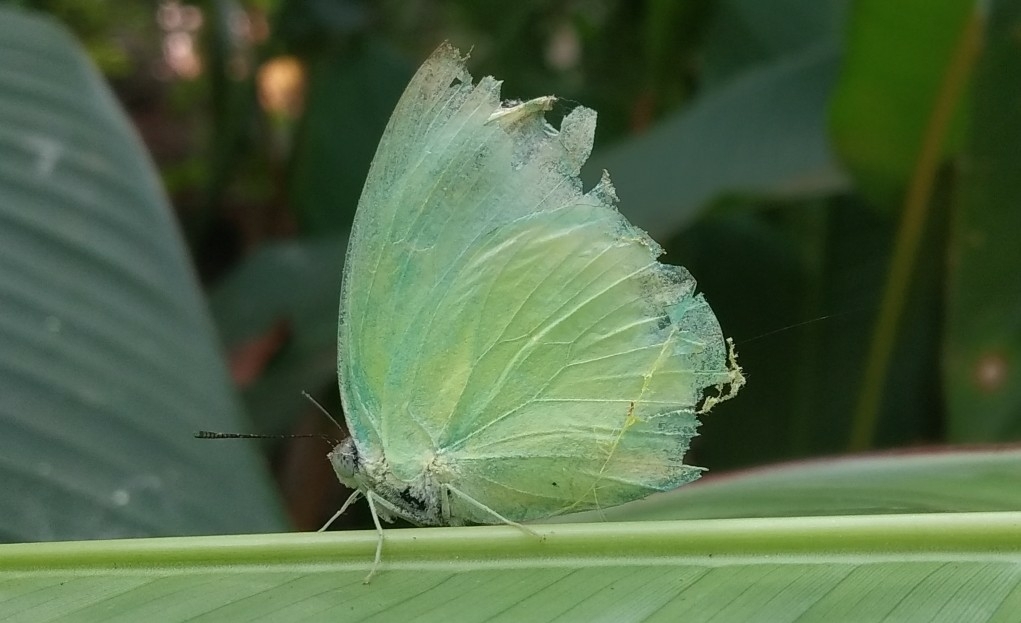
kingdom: Animalia
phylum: Arthropoda
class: Insecta
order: Lepidoptera
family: Pieridae
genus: Catopsilia
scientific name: Catopsilia pomona
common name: Common emigrant
